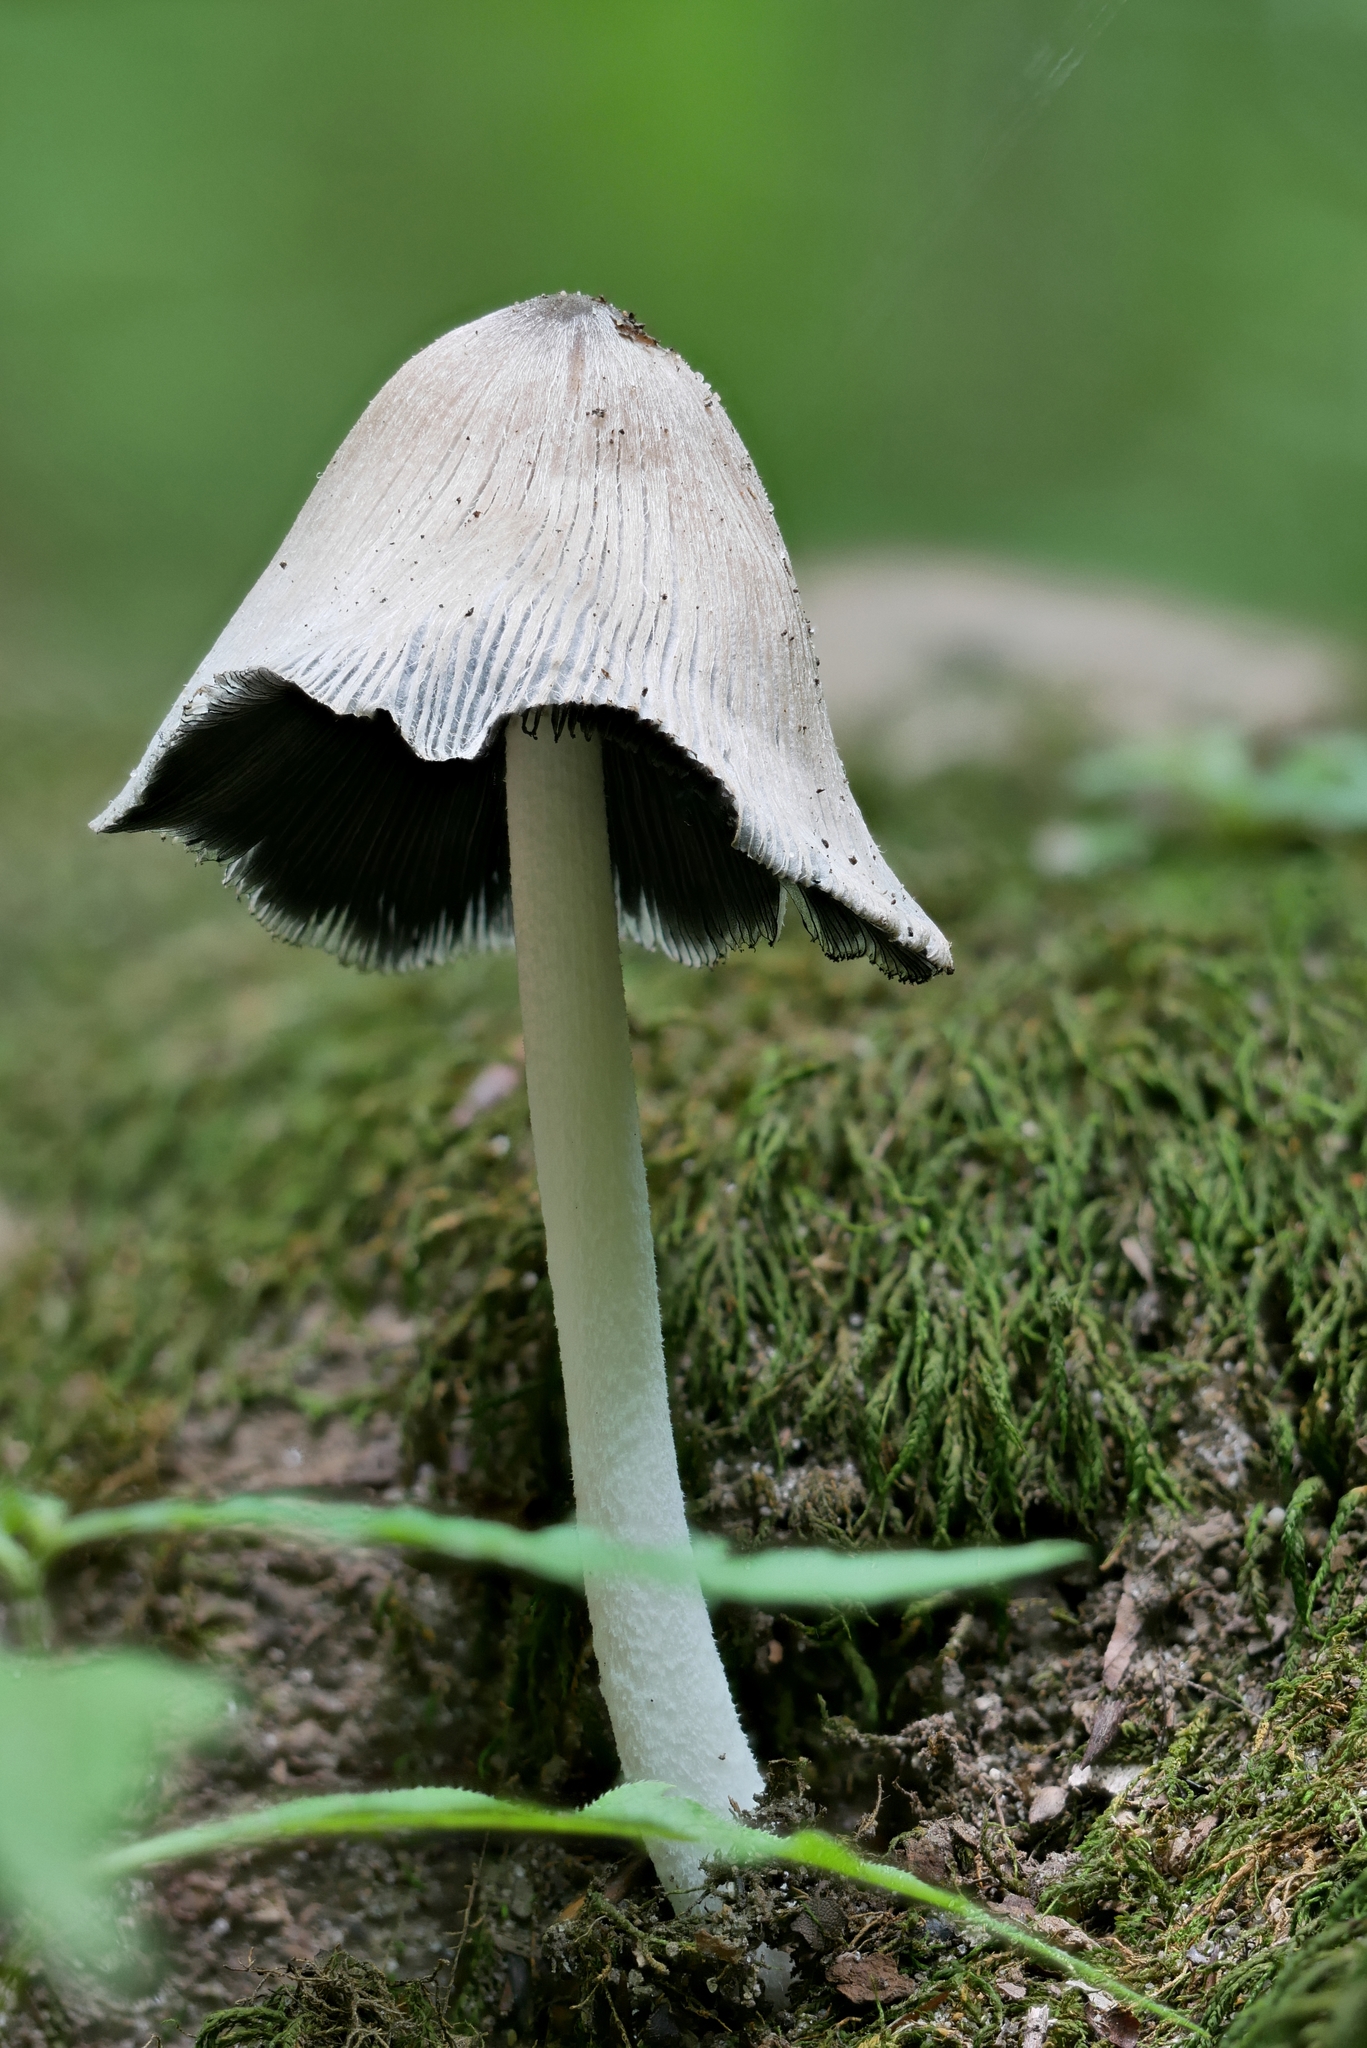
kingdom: Fungi
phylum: Basidiomycota
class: Agaricomycetes
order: Agaricales
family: Psathyrellaceae
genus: Coprinopsis
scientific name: Coprinopsis insignis
